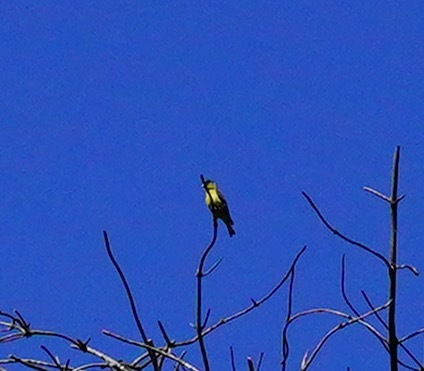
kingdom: Animalia
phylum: Chordata
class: Aves
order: Passeriformes
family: Fringillidae
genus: Spinus
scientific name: Spinus psaltria
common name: Lesser goldfinch
